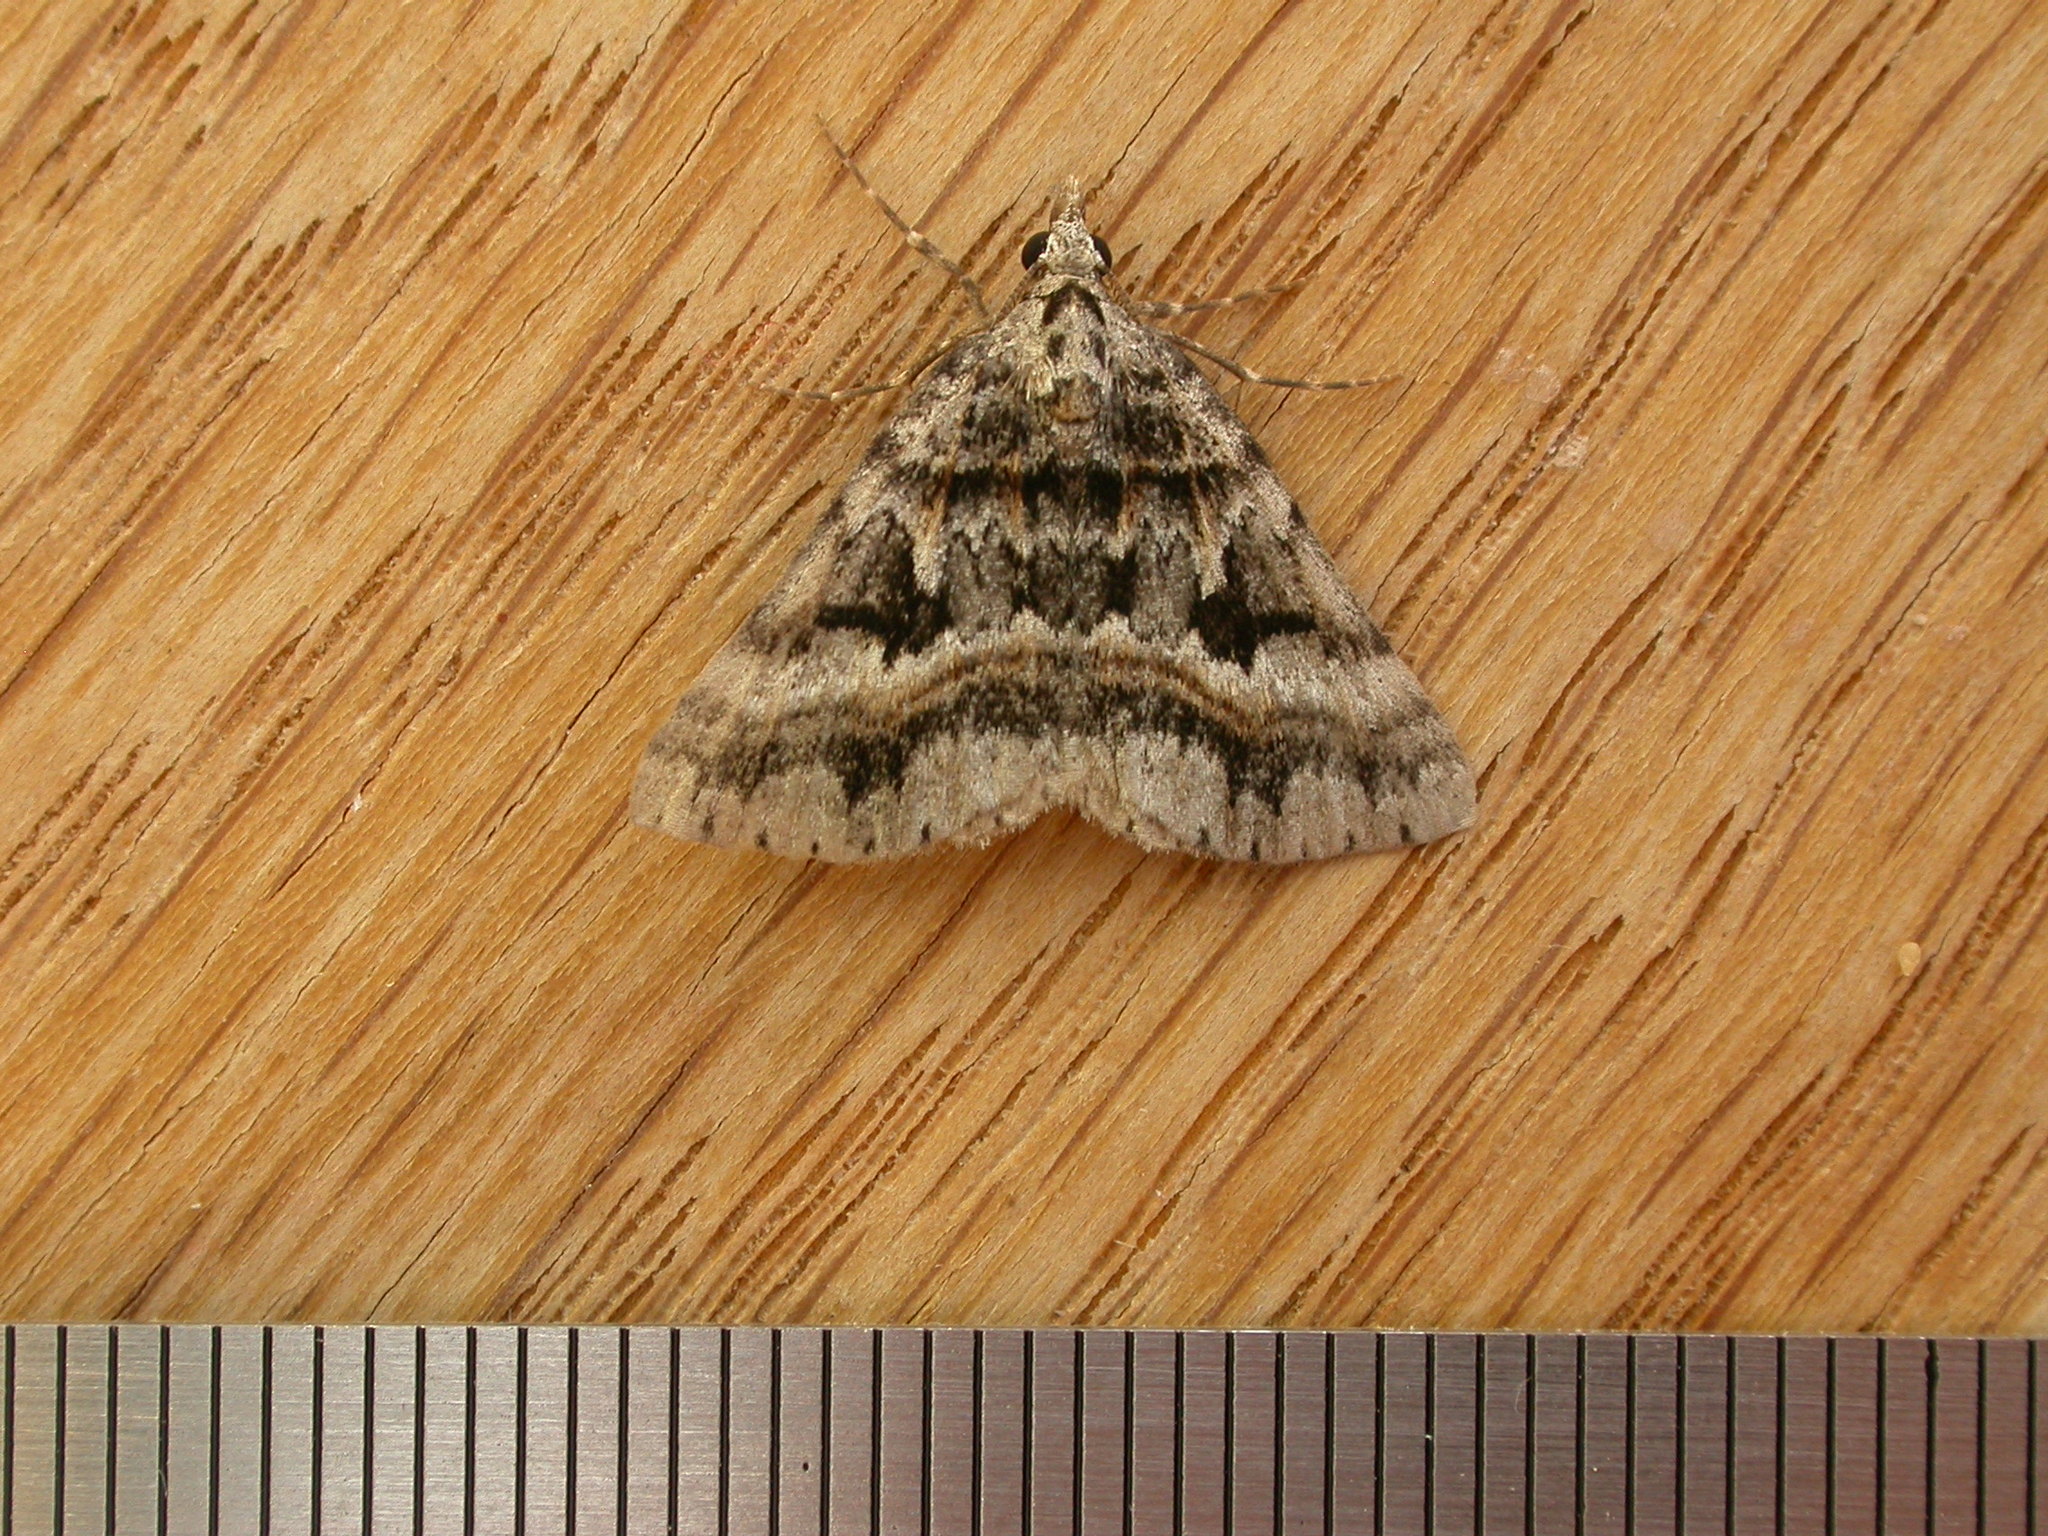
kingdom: Animalia
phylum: Arthropoda
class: Insecta
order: Lepidoptera
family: Geometridae
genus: Dichromodes
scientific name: Dichromodes longidens
